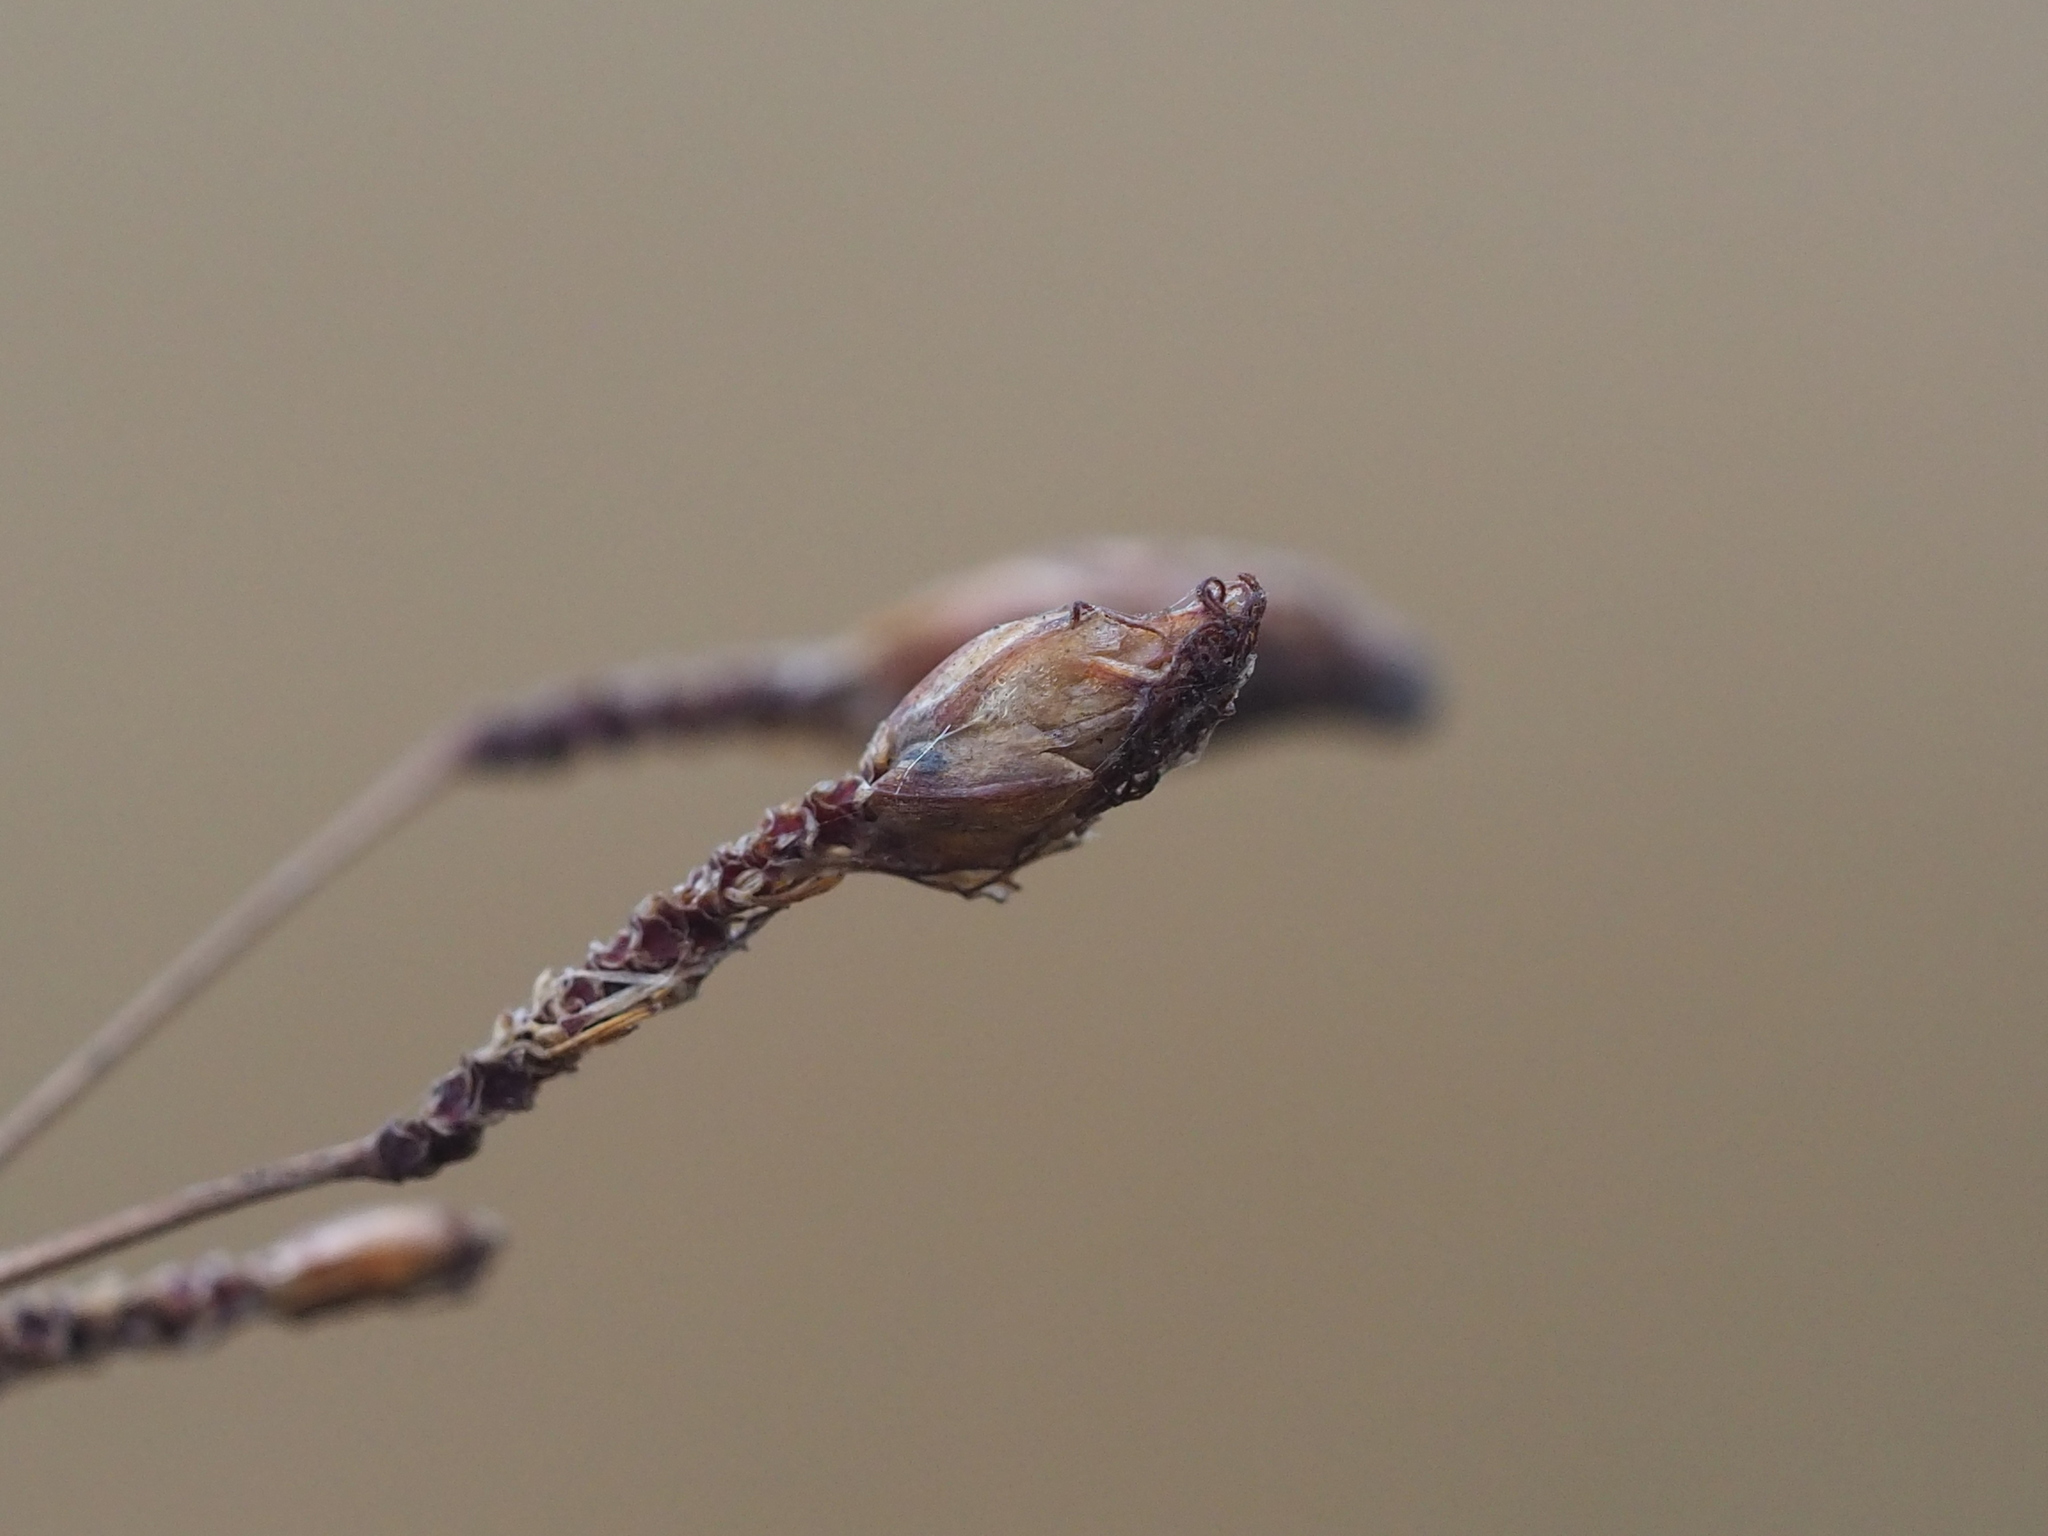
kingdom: Plantae
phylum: Tracheophyta
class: Liliopsida
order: Poales
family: Cyperaceae
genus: Fimbristylis
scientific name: Fimbristylis subinclinata
